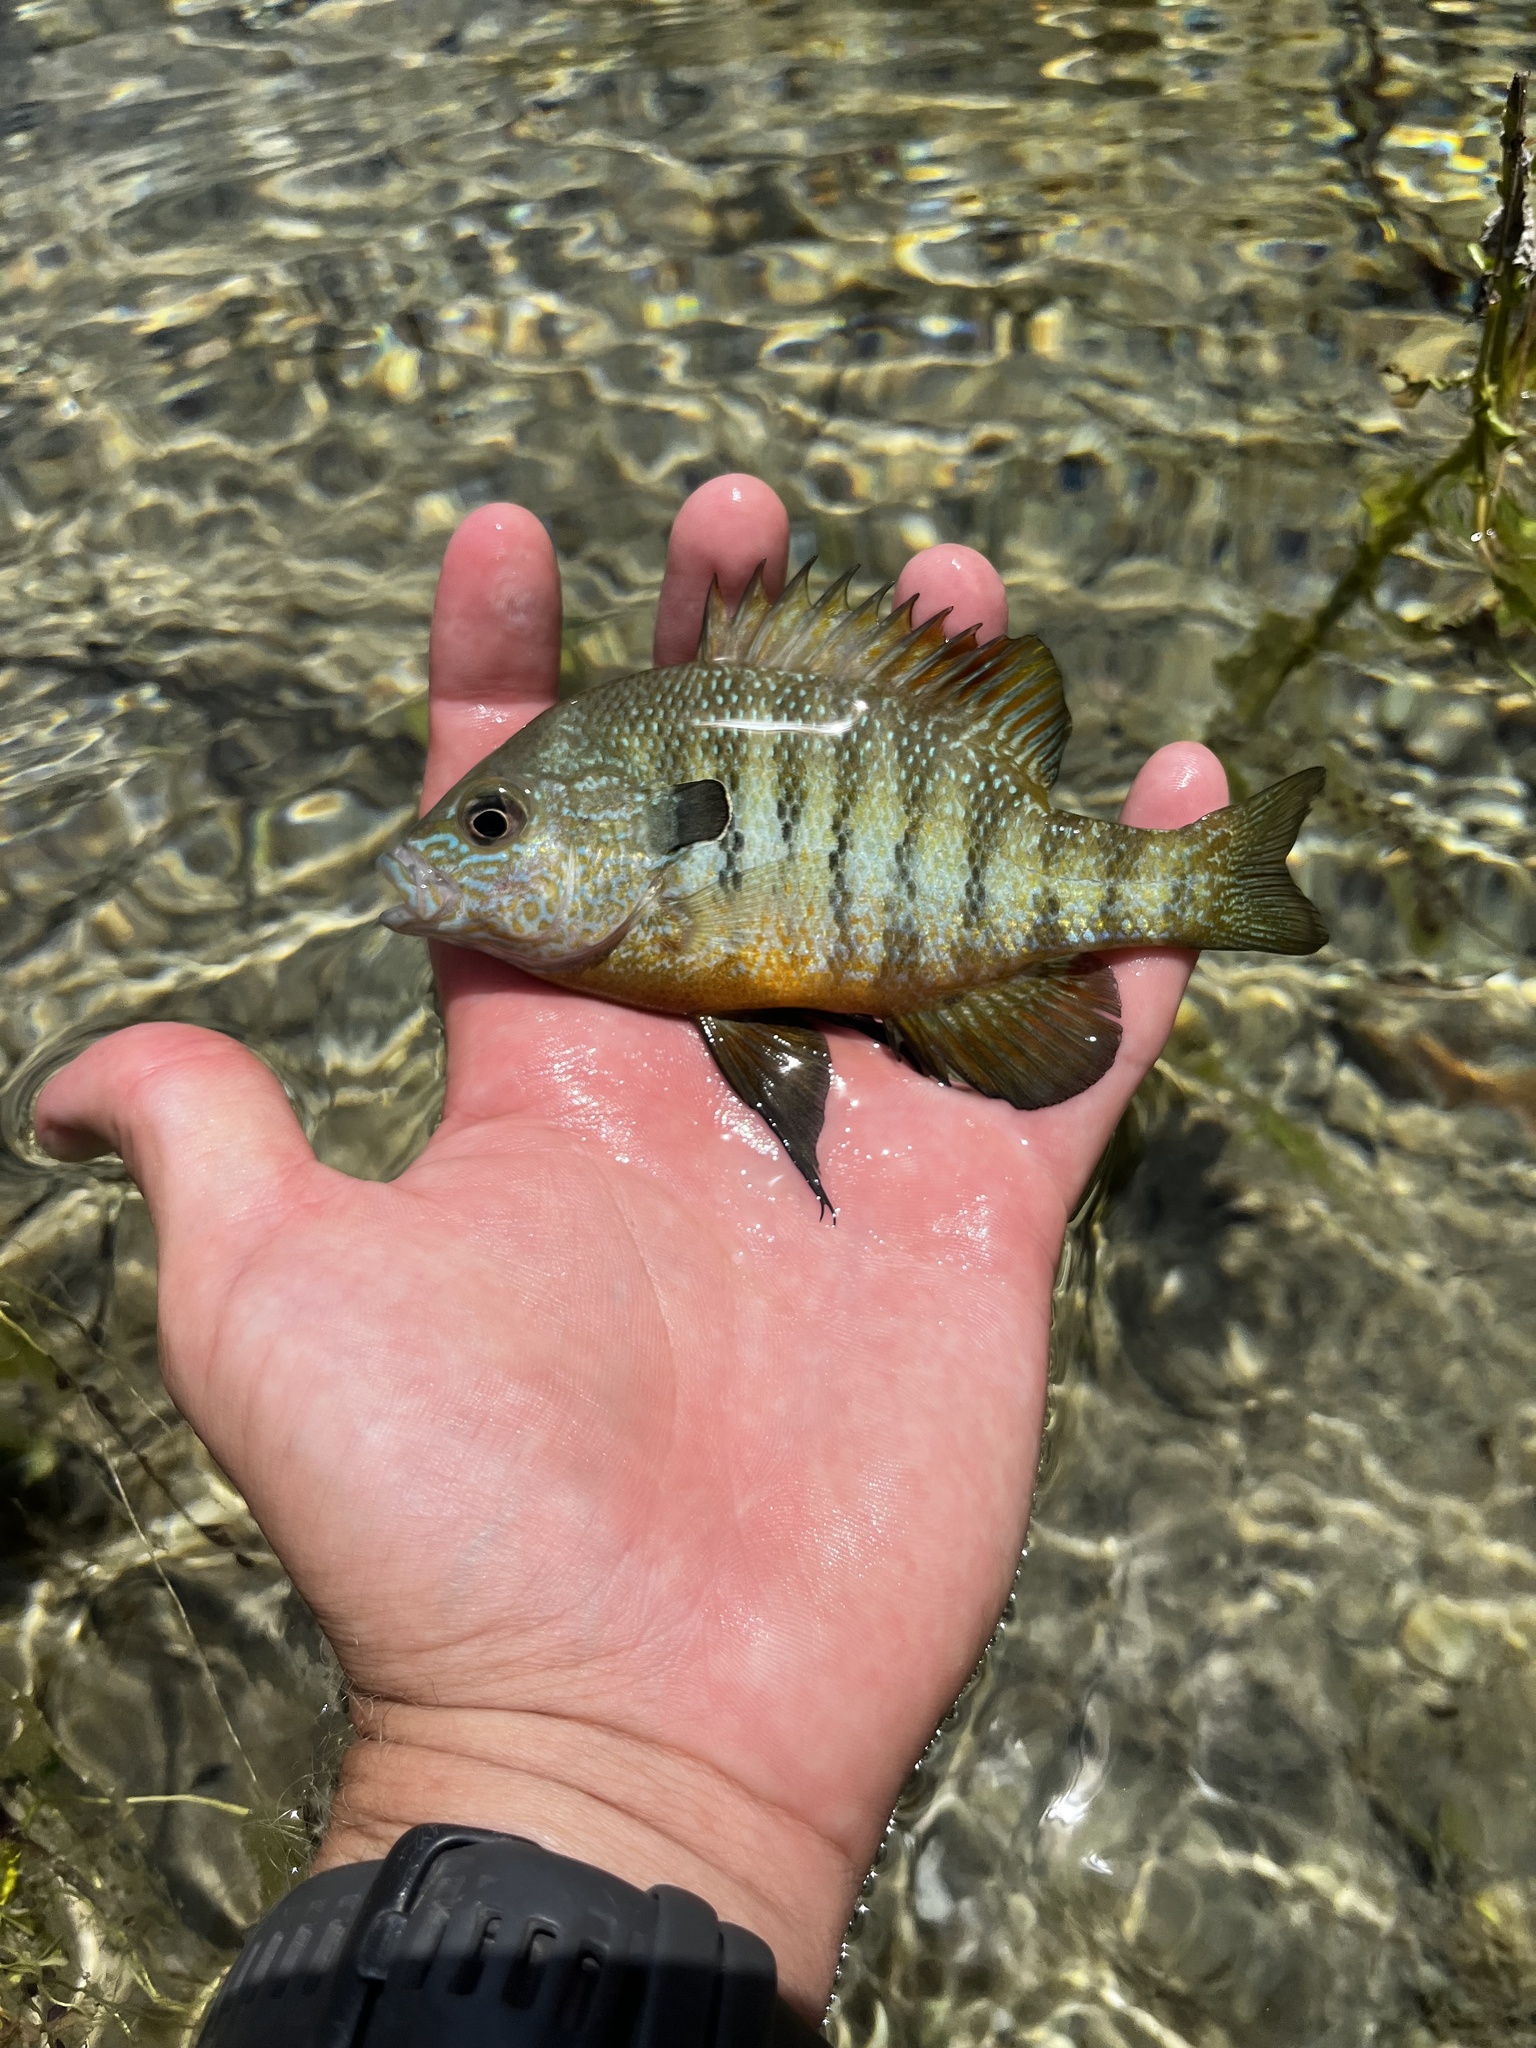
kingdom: Animalia
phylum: Chordata
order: Perciformes
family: Centrarchidae
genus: Lepomis
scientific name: Lepomis aquilensis
